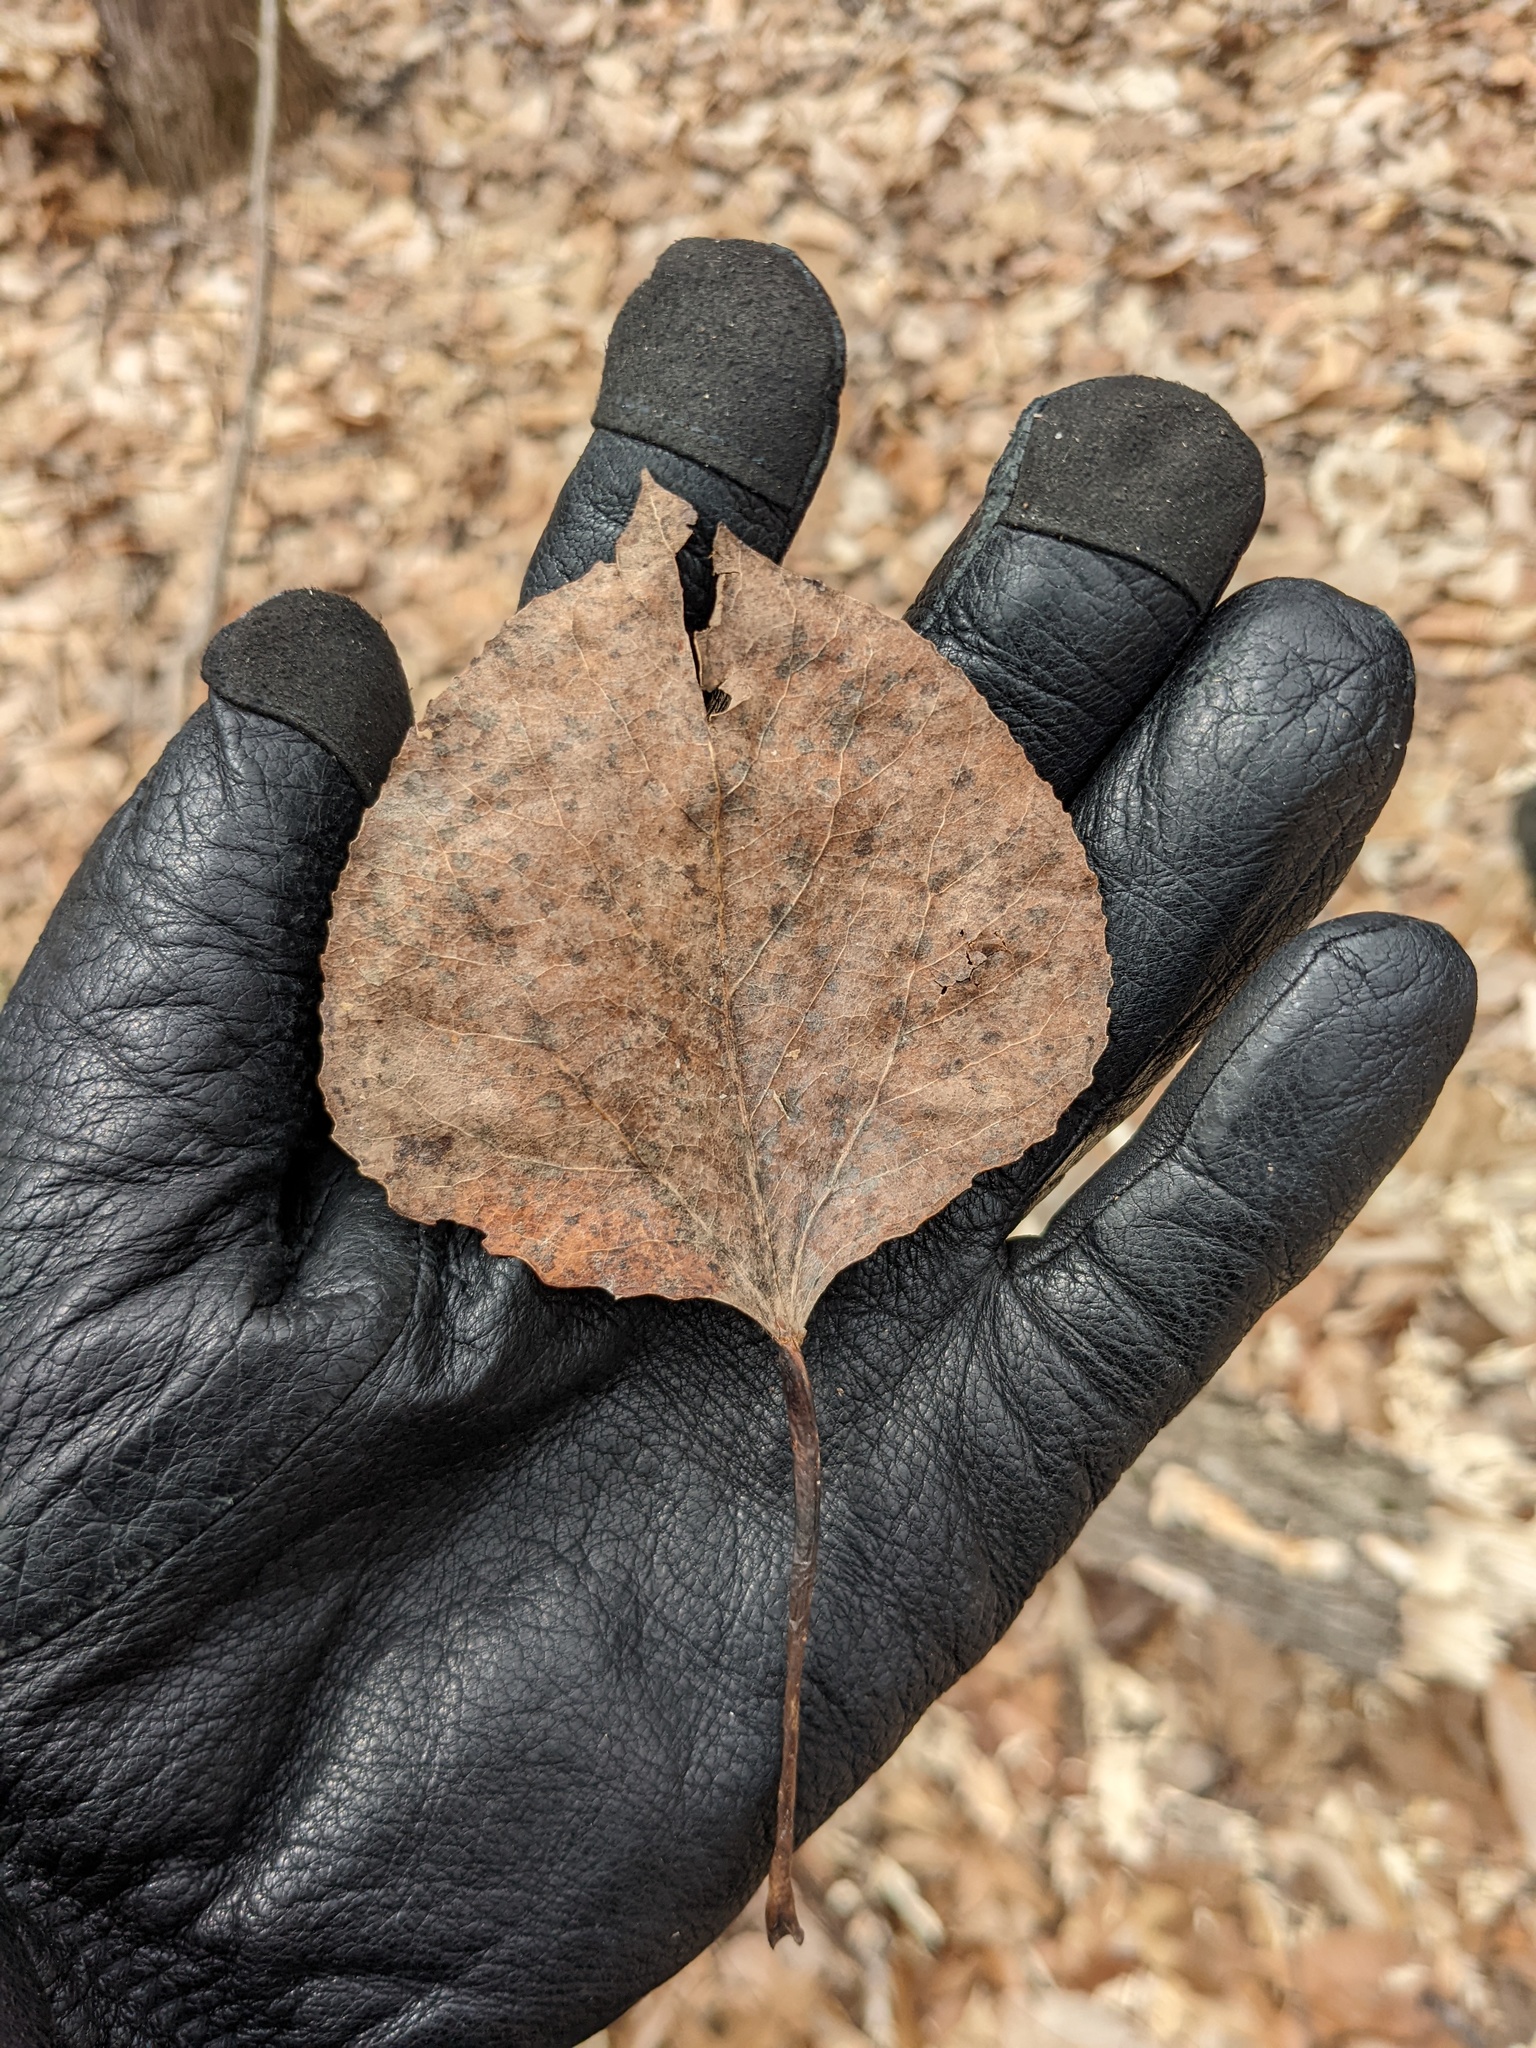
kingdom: Plantae
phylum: Tracheophyta
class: Magnoliopsida
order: Malpighiales
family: Salicaceae
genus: Populus
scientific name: Populus tremuloides
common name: Quaking aspen
